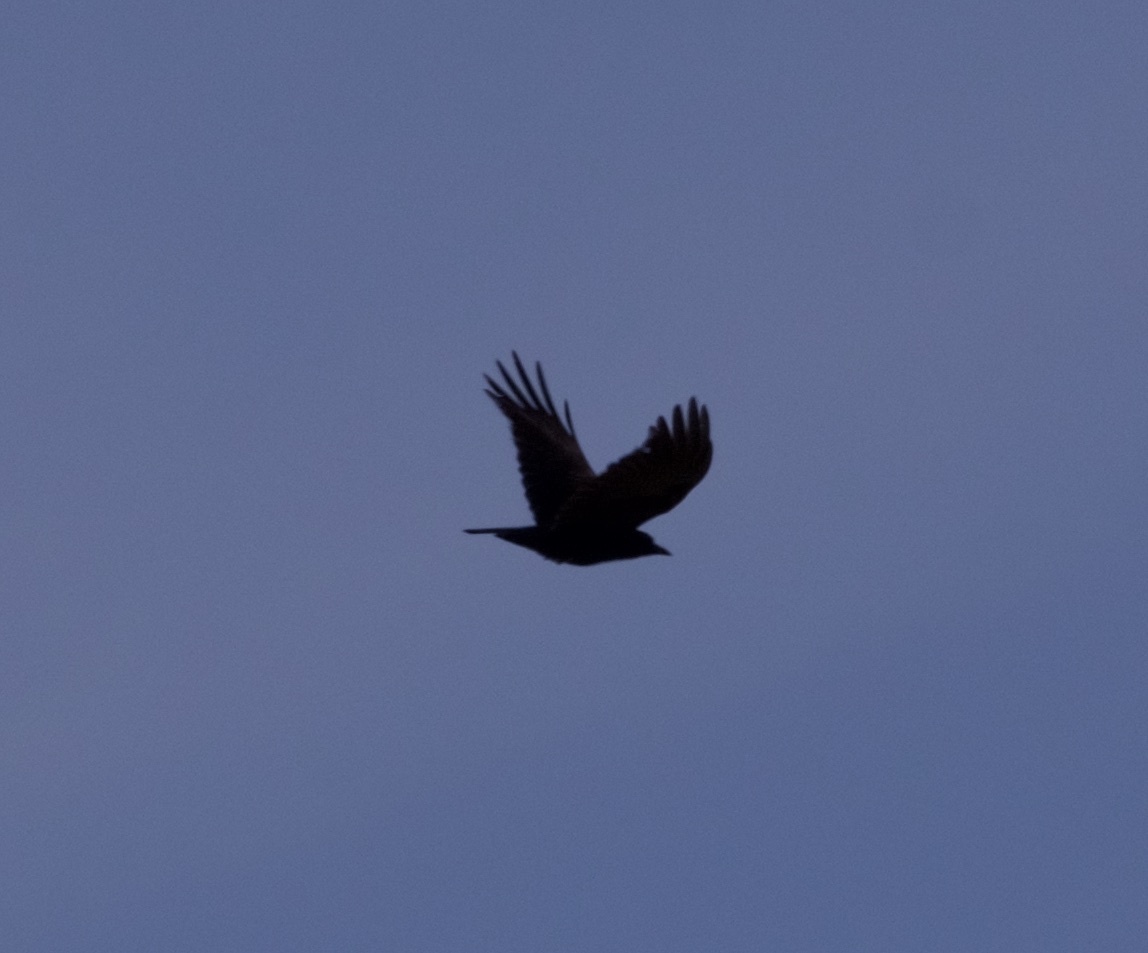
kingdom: Animalia
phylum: Chordata
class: Aves
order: Passeriformes
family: Corvidae
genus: Corvus
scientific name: Corvus brachyrhynchos
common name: American crow
